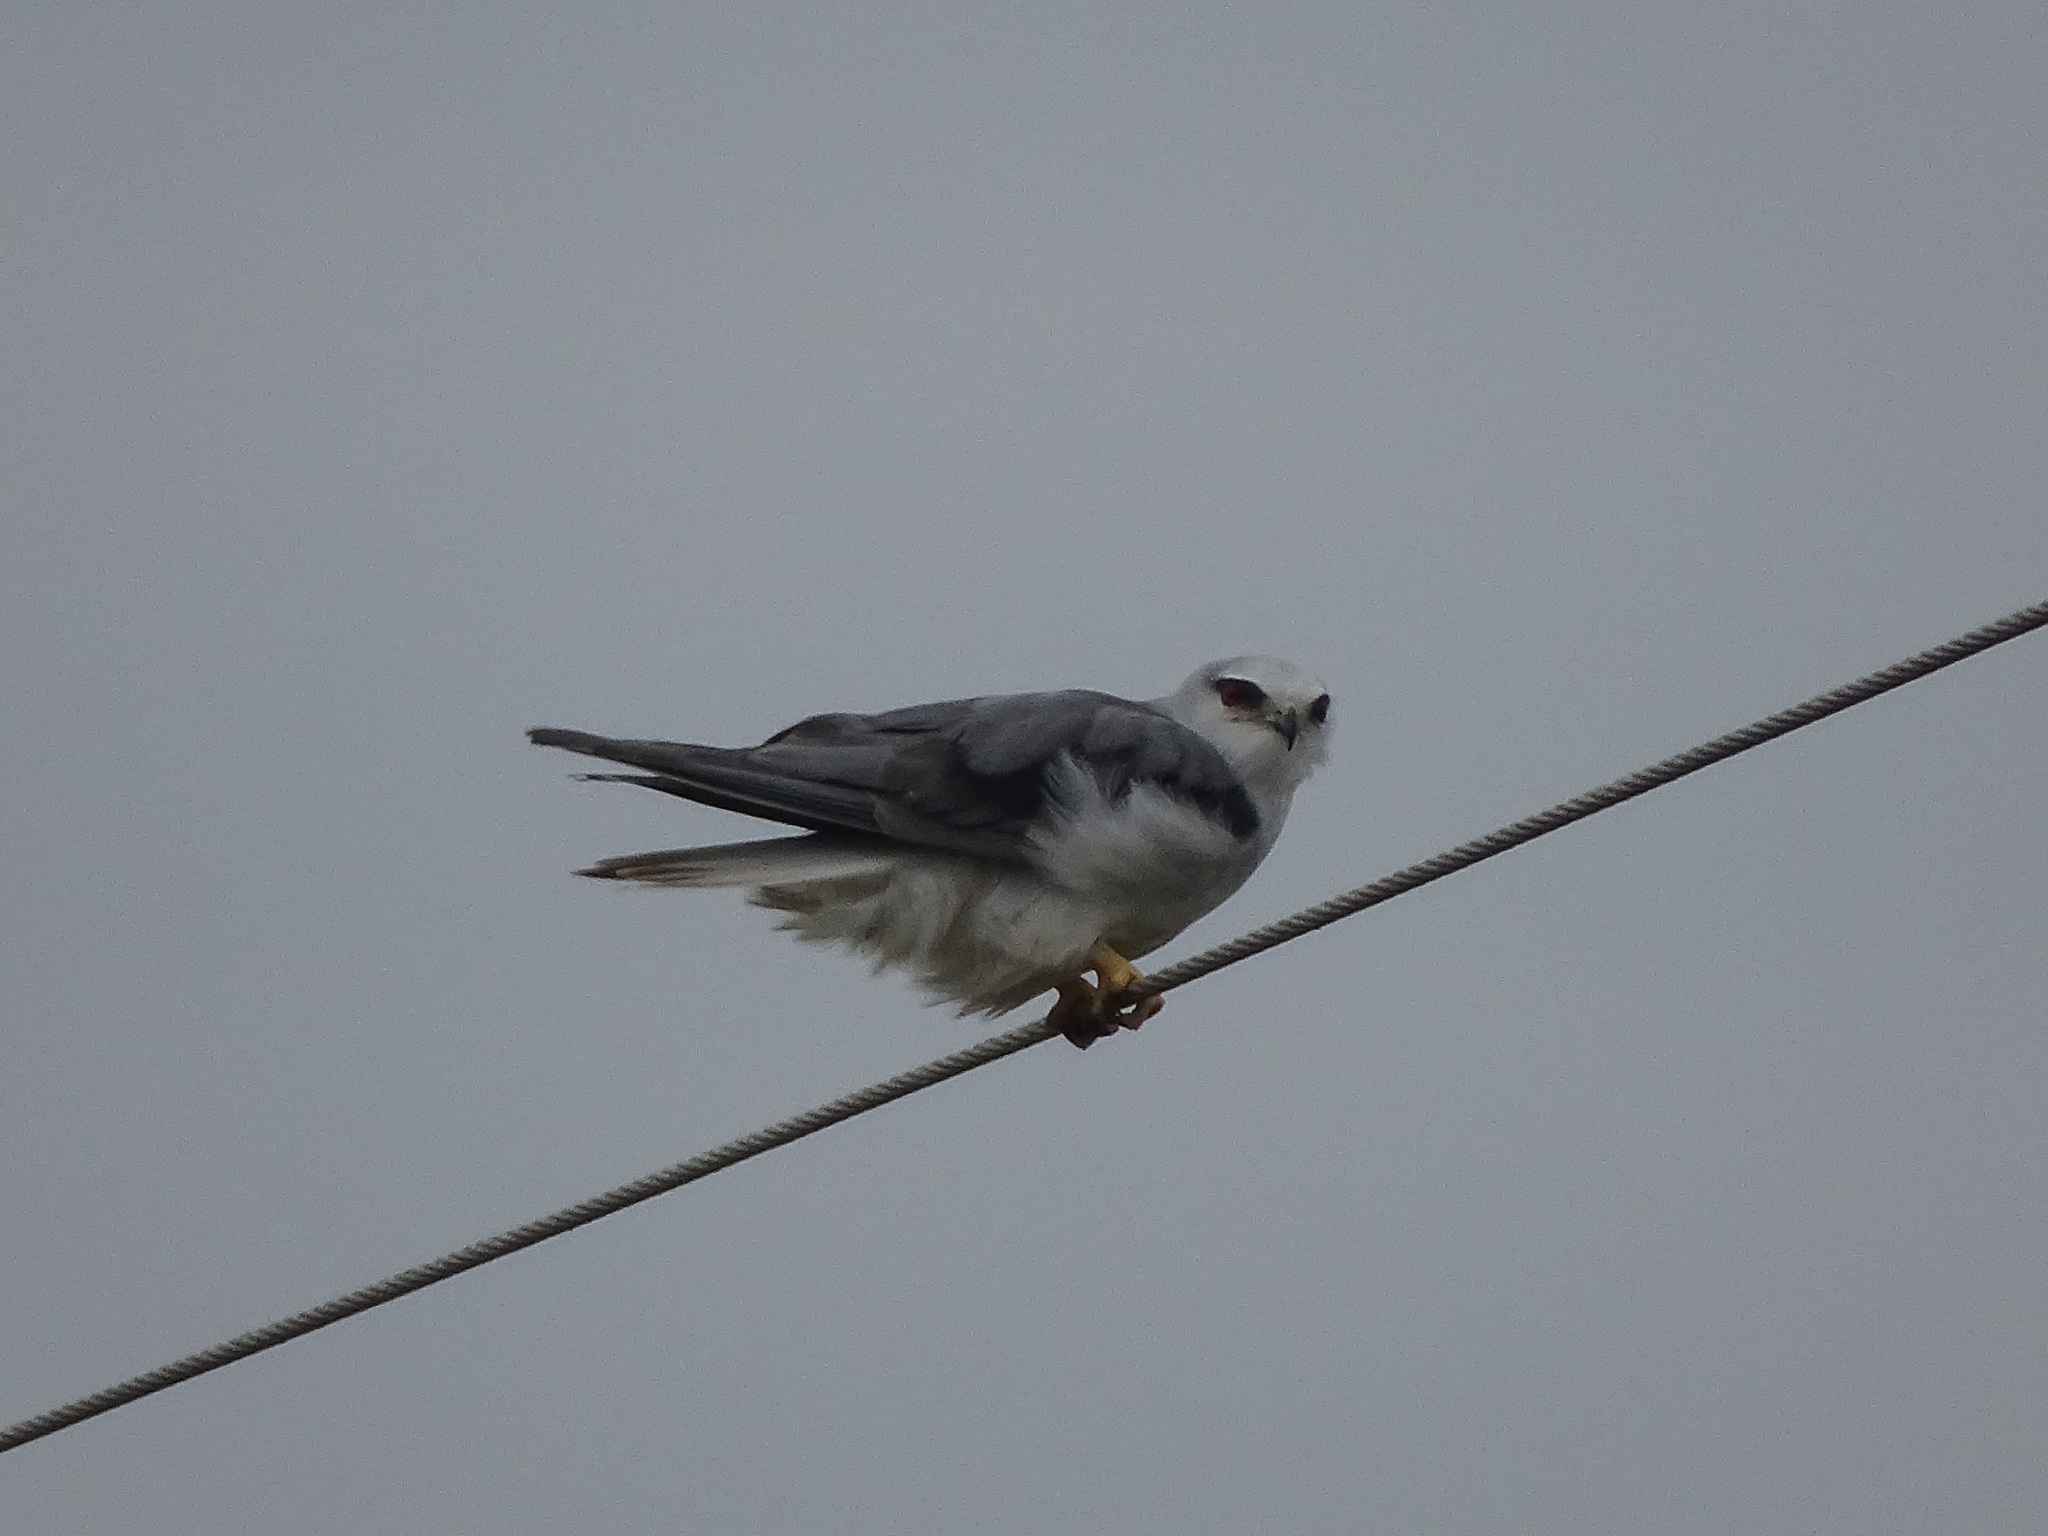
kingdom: Animalia
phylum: Chordata
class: Aves
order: Accipitriformes
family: Accipitridae
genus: Elanus
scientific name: Elanus caeruleus
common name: Black-winged kite
